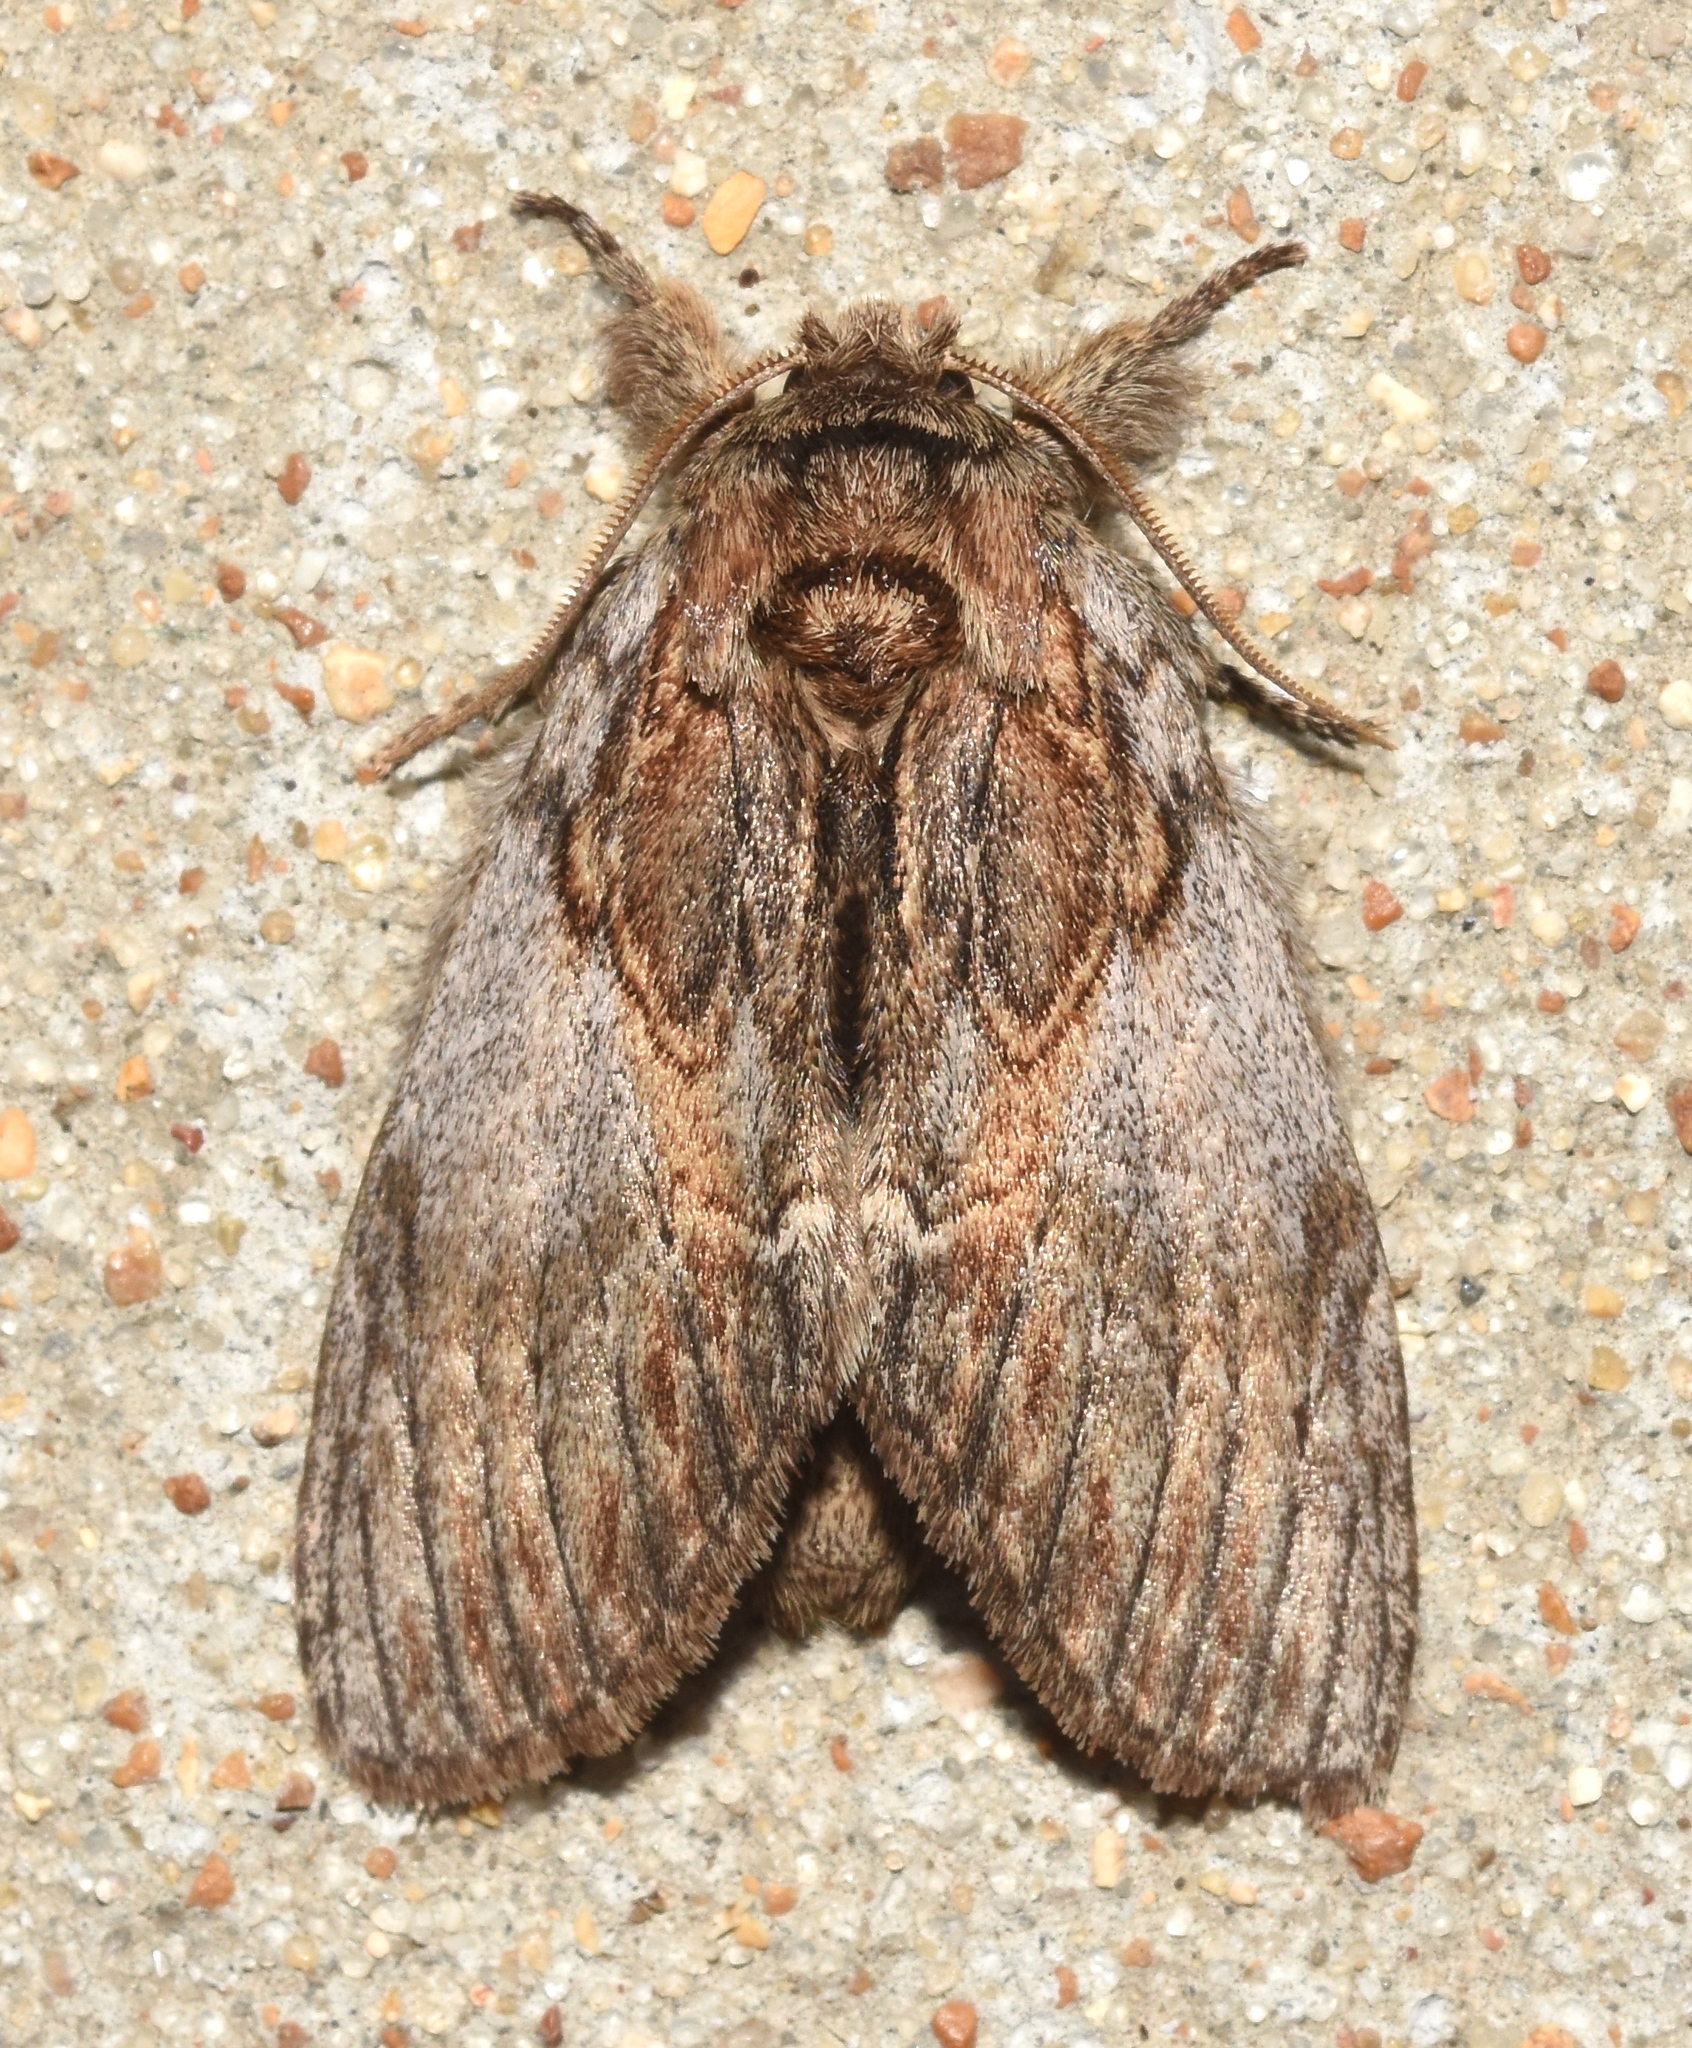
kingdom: Animalia
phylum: Arthropoda
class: Insecta
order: Lepidoptera
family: Notodontidae
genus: Peridea
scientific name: Peridea basitriens
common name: Oval-based prominent
